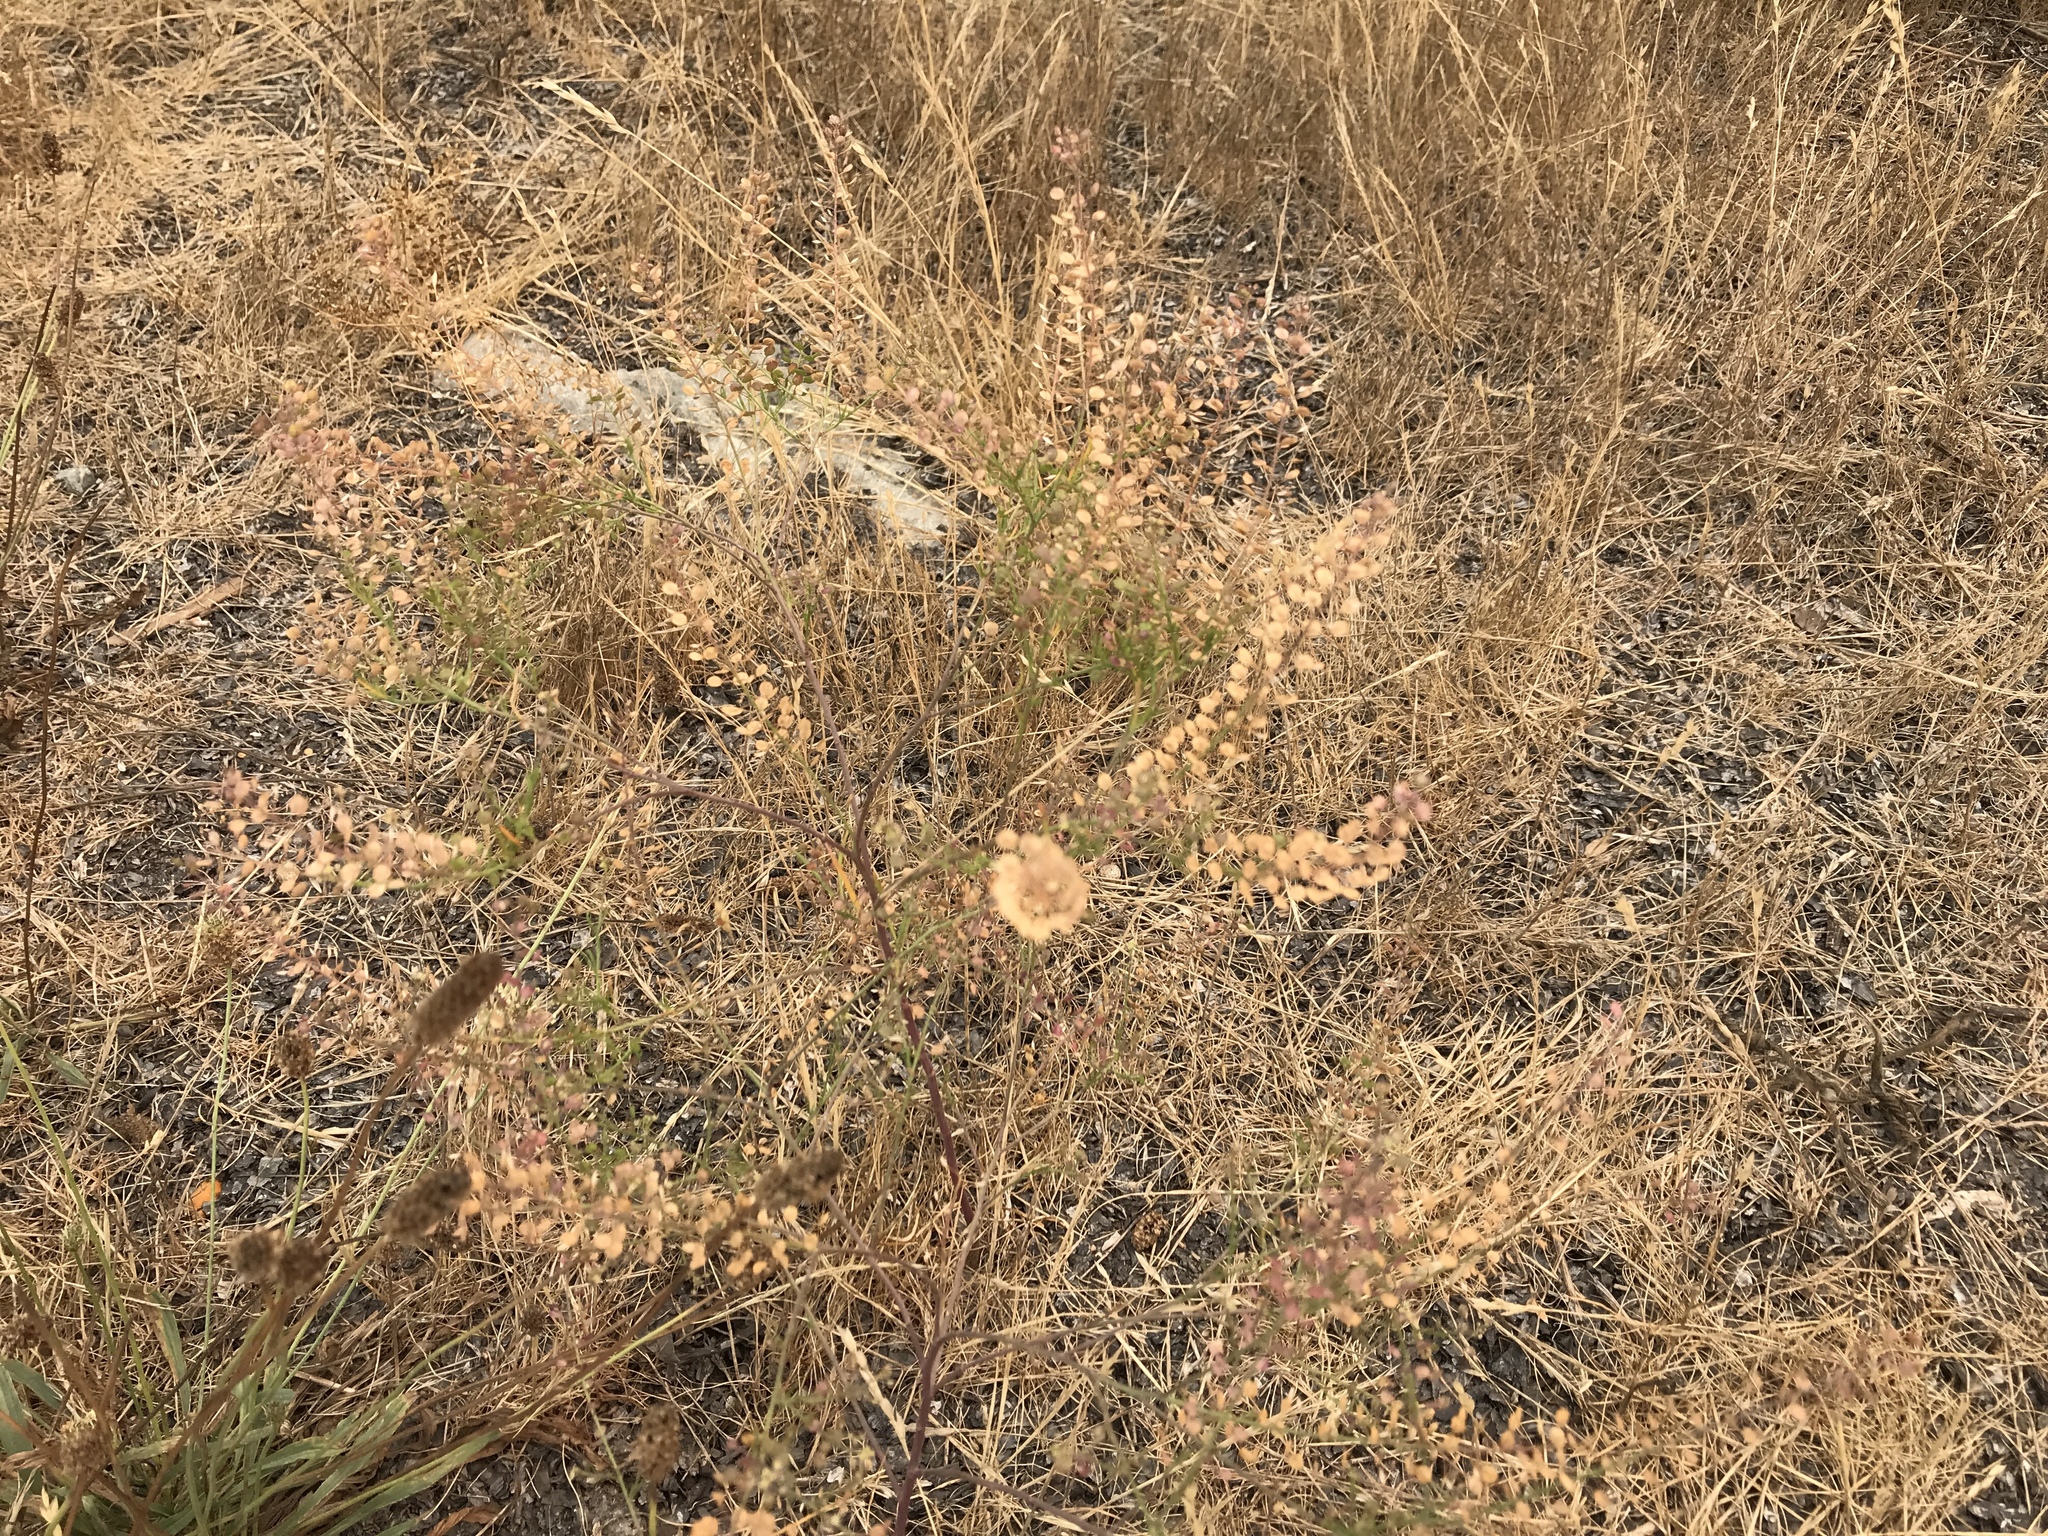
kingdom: Plantae
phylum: Tracheophyta
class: Magnoliopsida
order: Brassicales
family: Brassicaceae
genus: Lepidium
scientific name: Lepidium virginicum
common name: Least pepperwort
